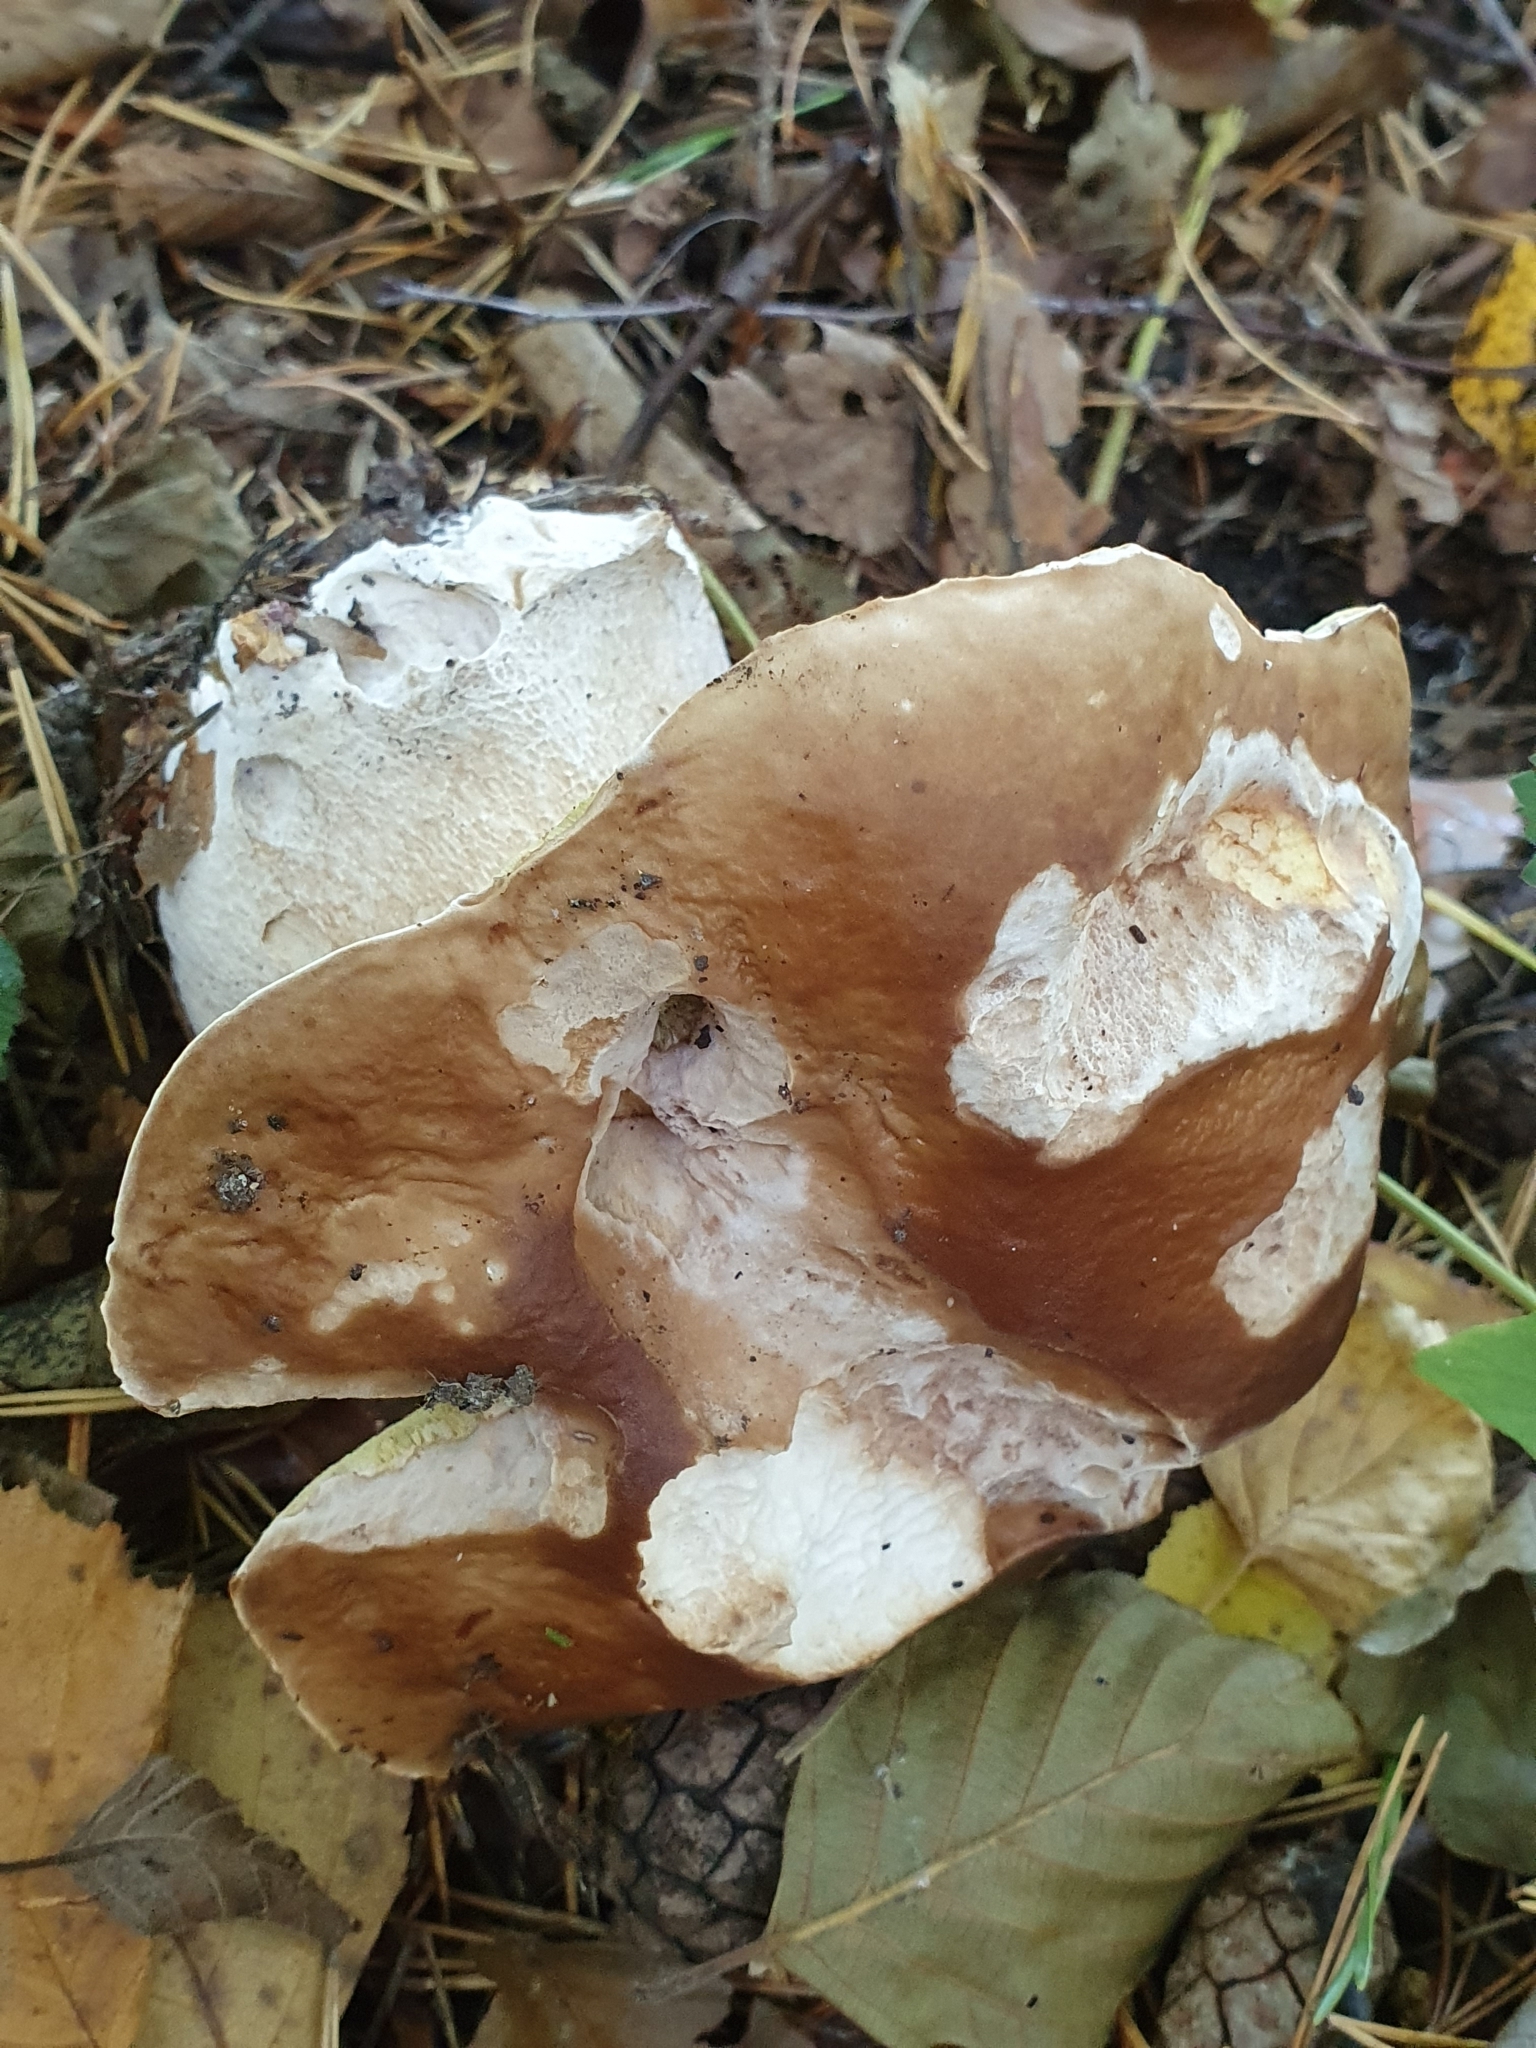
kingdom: Fungi
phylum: Basidiomycota
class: Agaricomycetes
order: Boletales
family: Boletaceae
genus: Boletus
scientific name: Boletus edulis
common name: Cep
